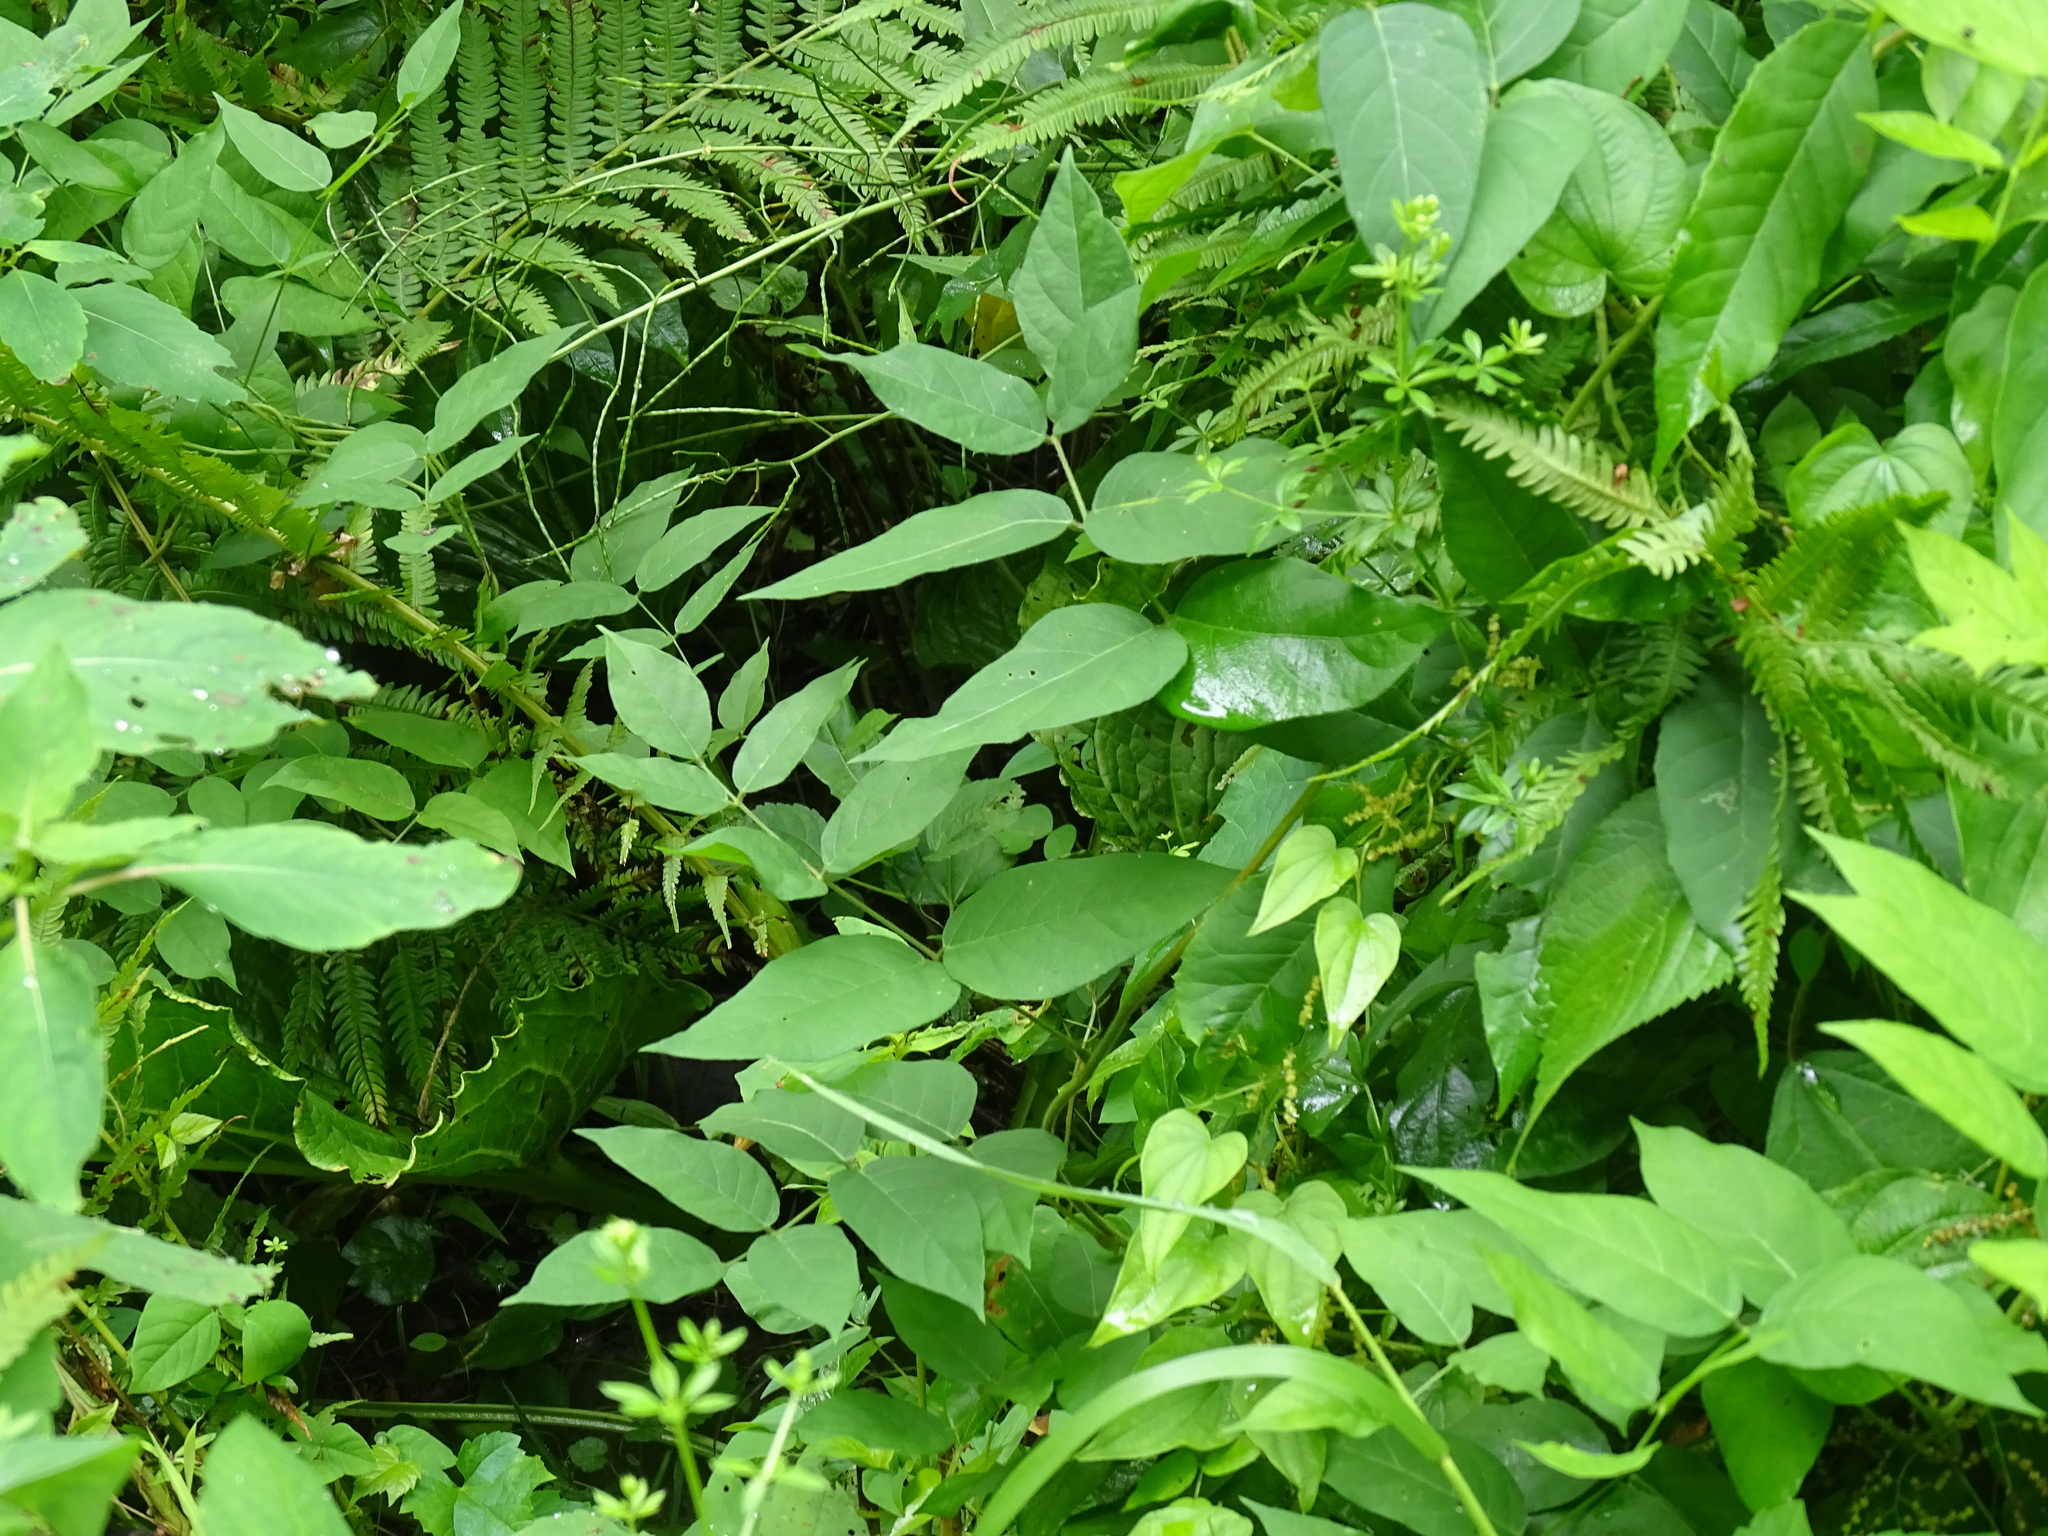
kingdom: Plantae
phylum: Tracheophyta
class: Magnoliopsida
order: Fabales
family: Fabaceae
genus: Apios
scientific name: Apios americana
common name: American potato-bean
